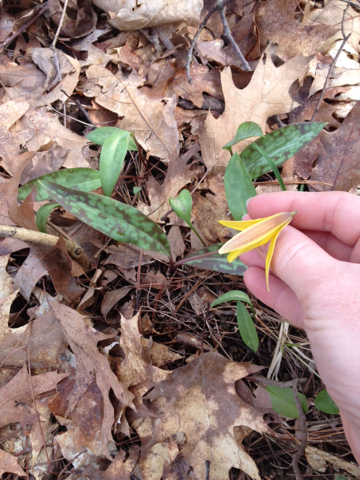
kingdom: Plantae
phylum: Tracheophyta
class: Liliopsida
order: Liliales
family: Liliaceae
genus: Erythronium
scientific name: Erythronium americanum
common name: Yellow adder's-tongue
